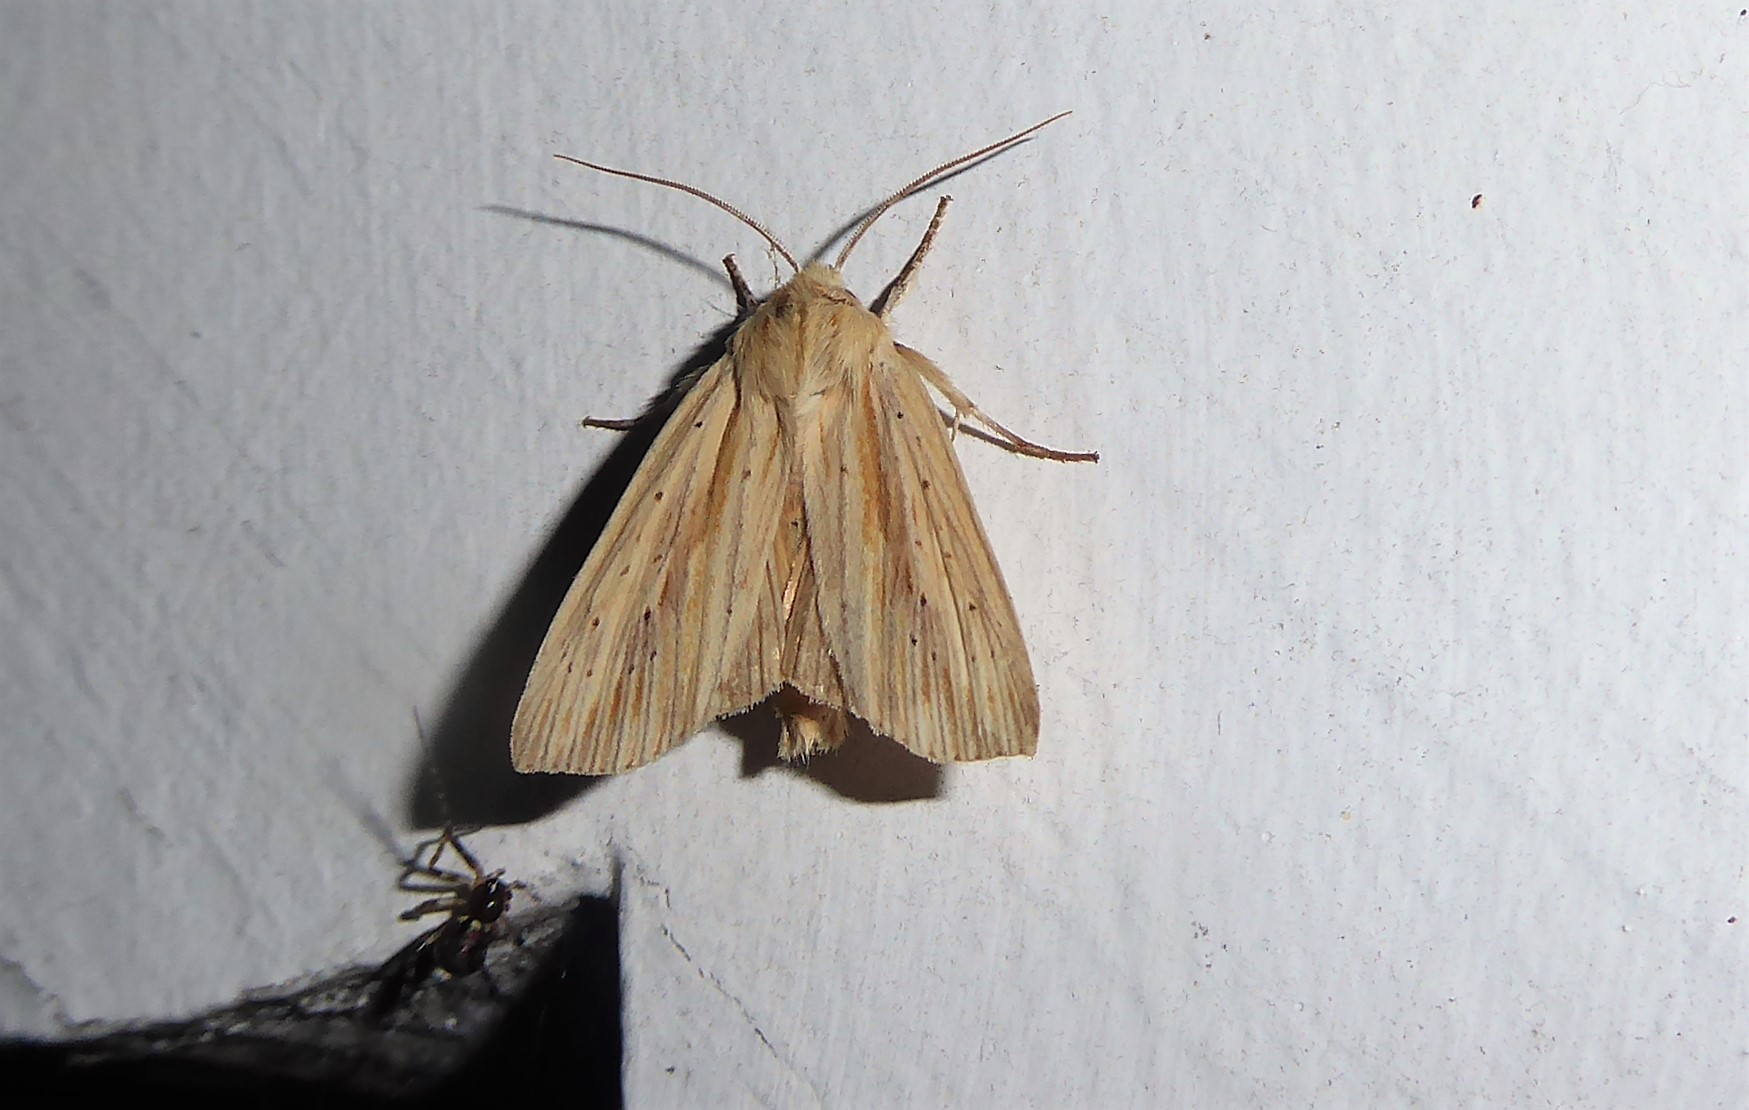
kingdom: Animalia
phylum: Arthropoda
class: Insecta
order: Lepidoptera
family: Noctuidae
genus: Ichneutica
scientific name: Ichneutica semivittata
